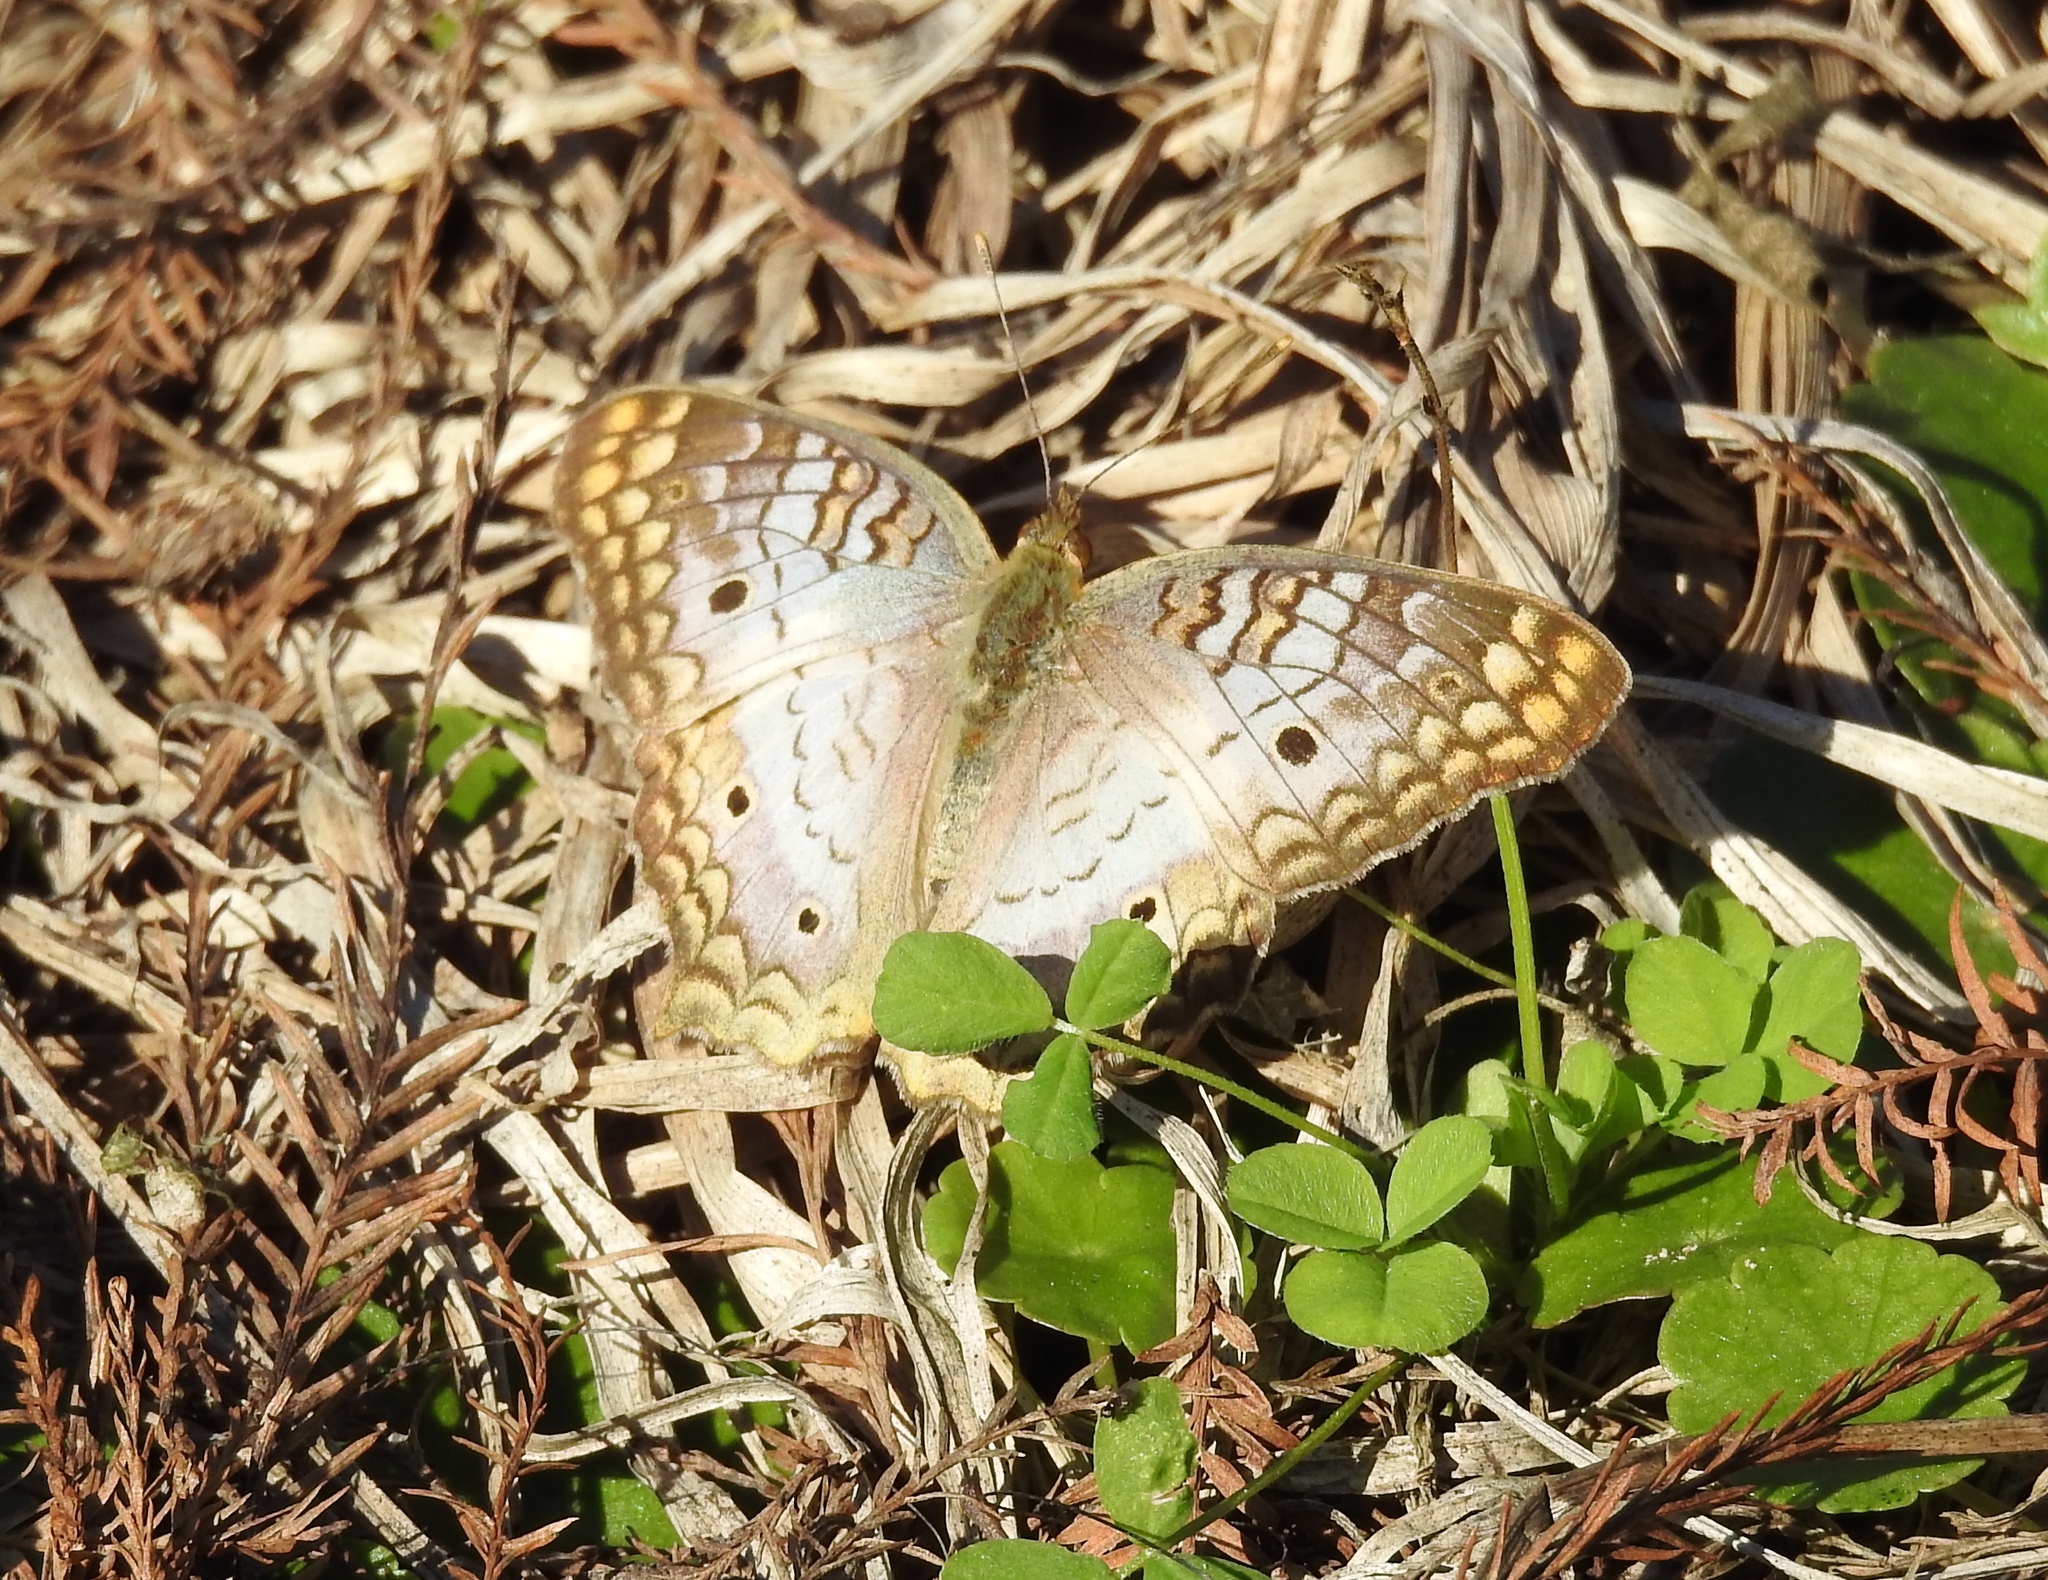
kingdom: Animalia
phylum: Arthropoda
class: Insecta
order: Lepidoptera
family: Nymphalidae
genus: Anartia
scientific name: Anartia jatrophae
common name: White peacock
